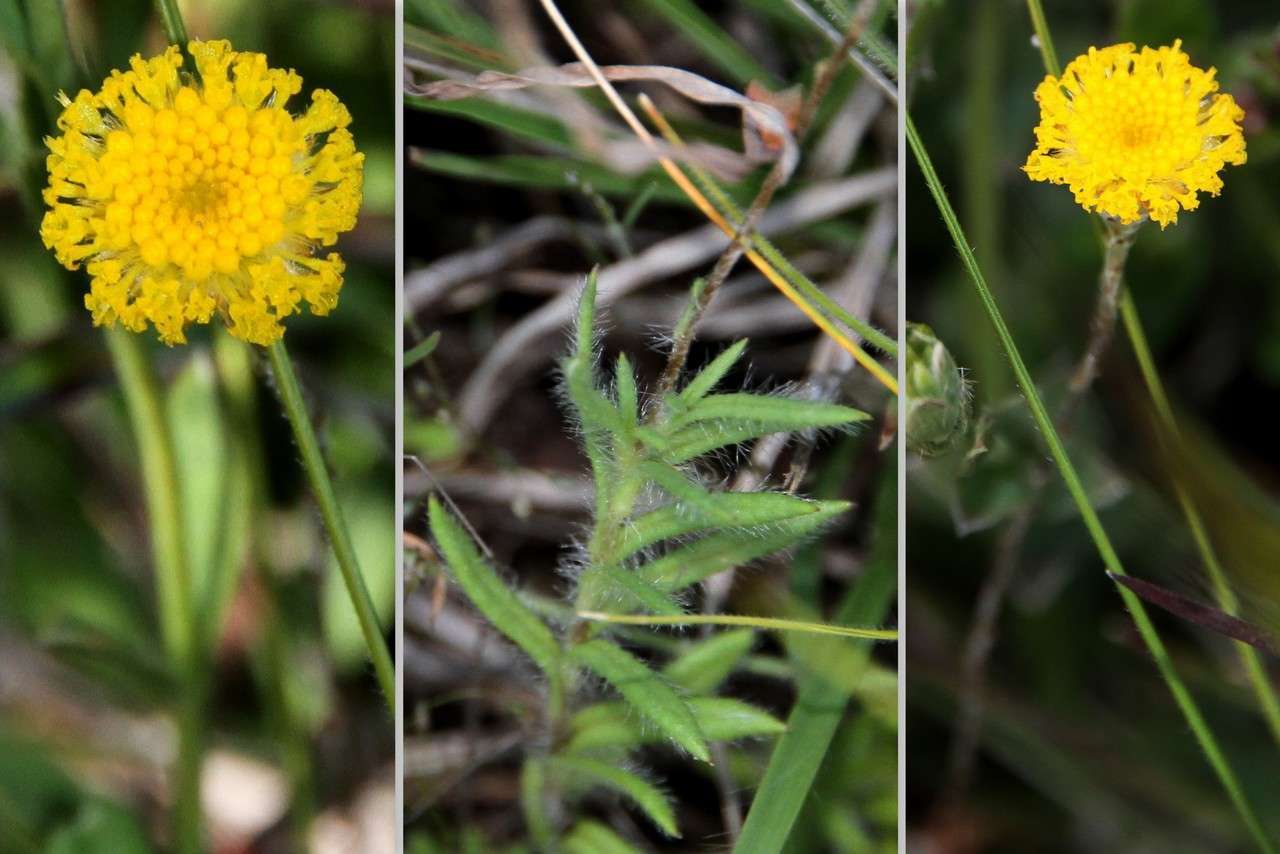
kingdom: Plantae
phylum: Tracheophyta
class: Magnoliopsida
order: Asterales
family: Asteraceae
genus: Leptorhynchos
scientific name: Leptorhynchos squamatus
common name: Scaly-buttons
